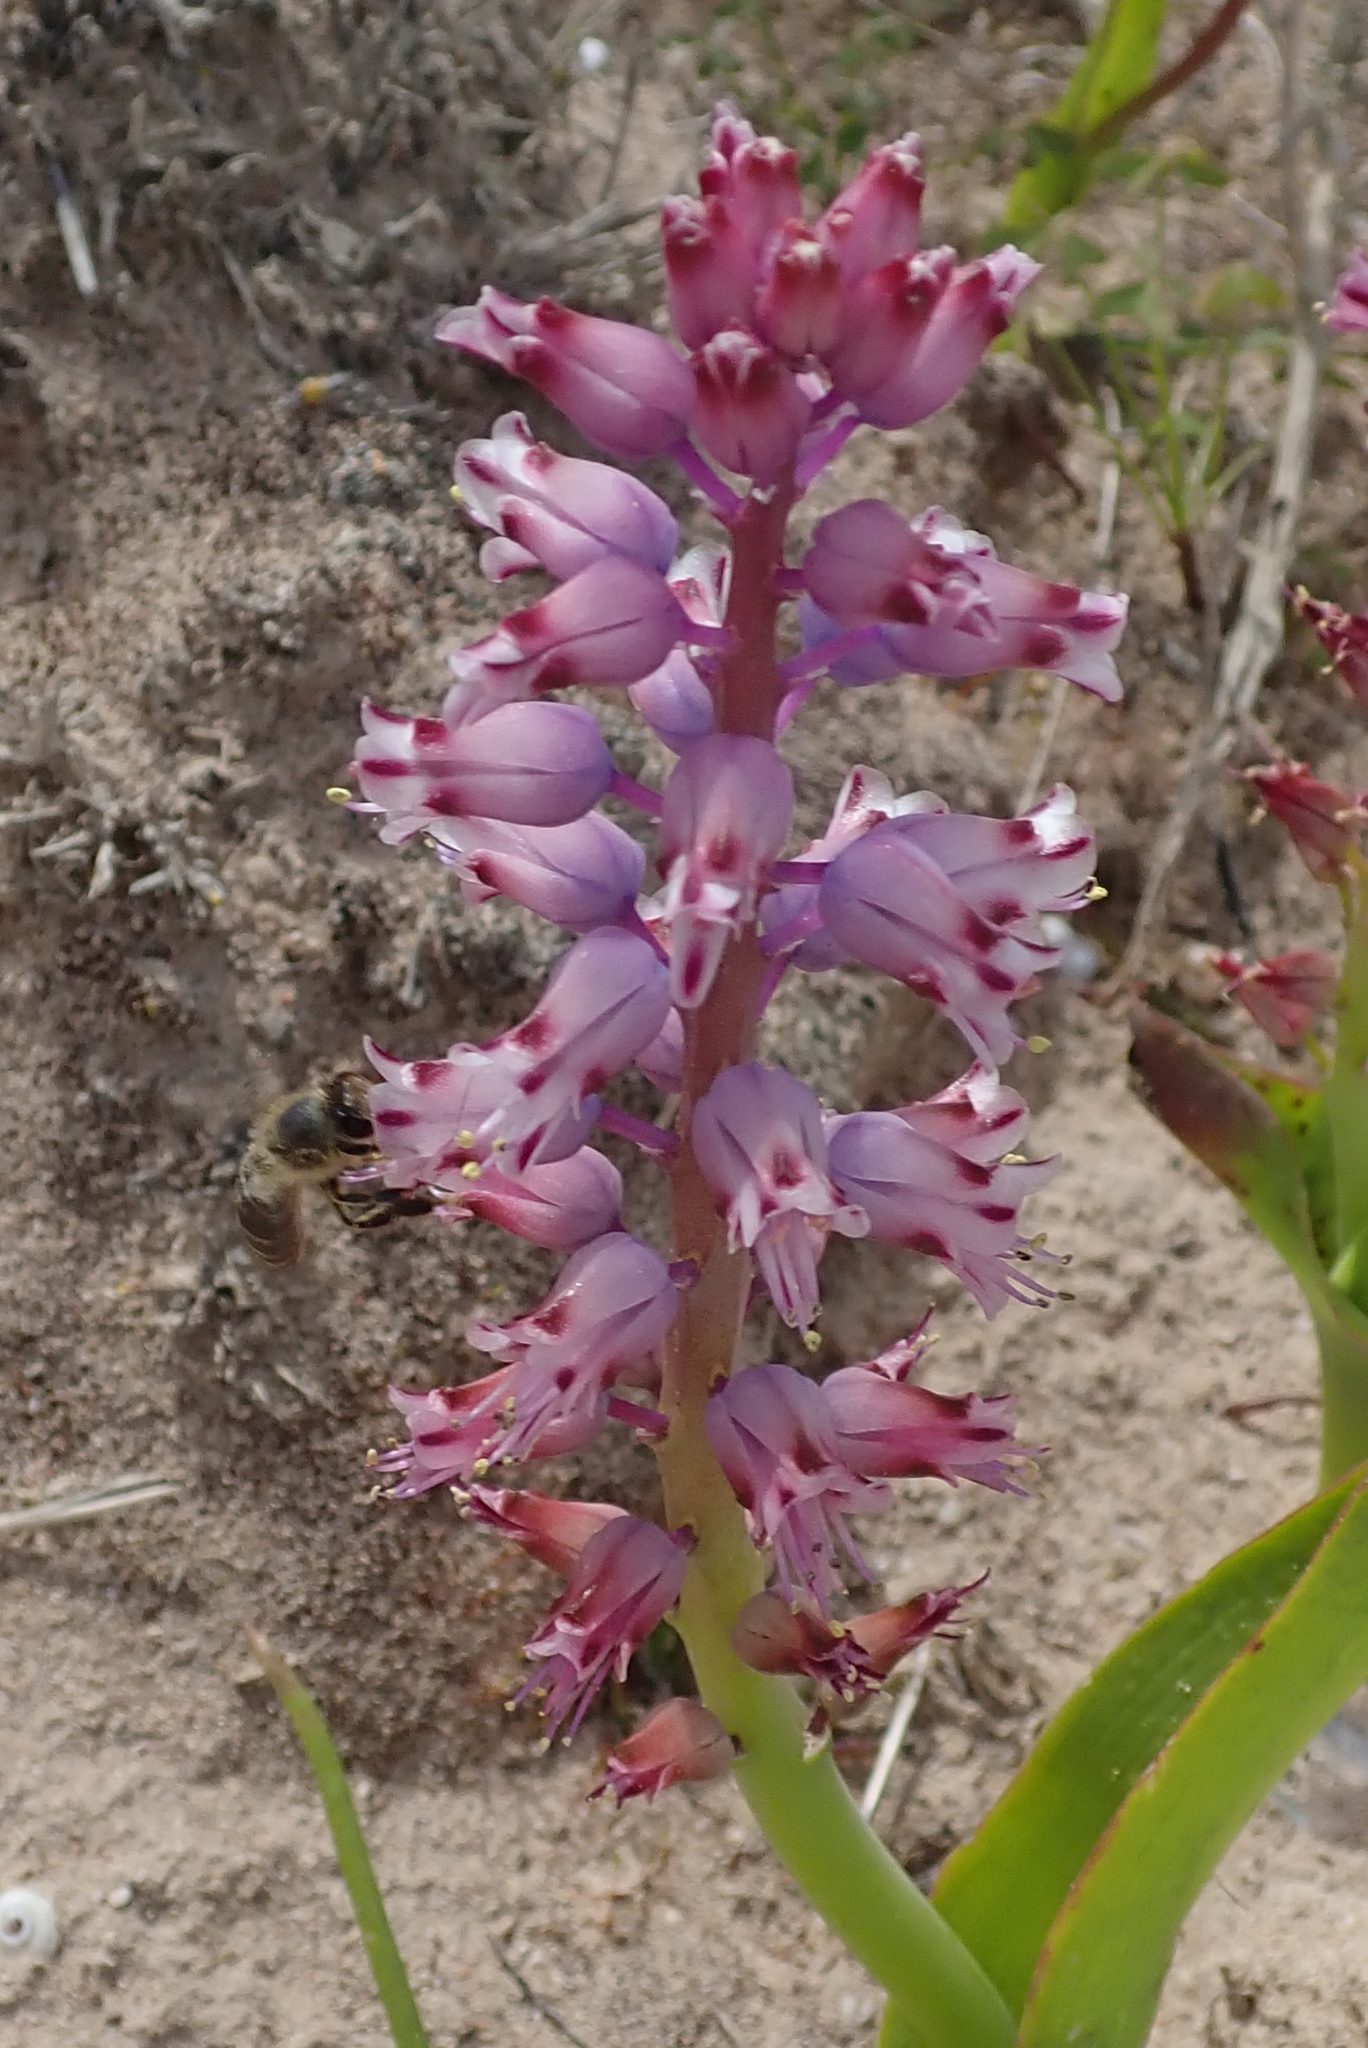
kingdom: Plantae
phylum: Tracheophyta
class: Liliopsida
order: Asparagales
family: Asparagaceae
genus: Lachenalia
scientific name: Lachenalia pallida
